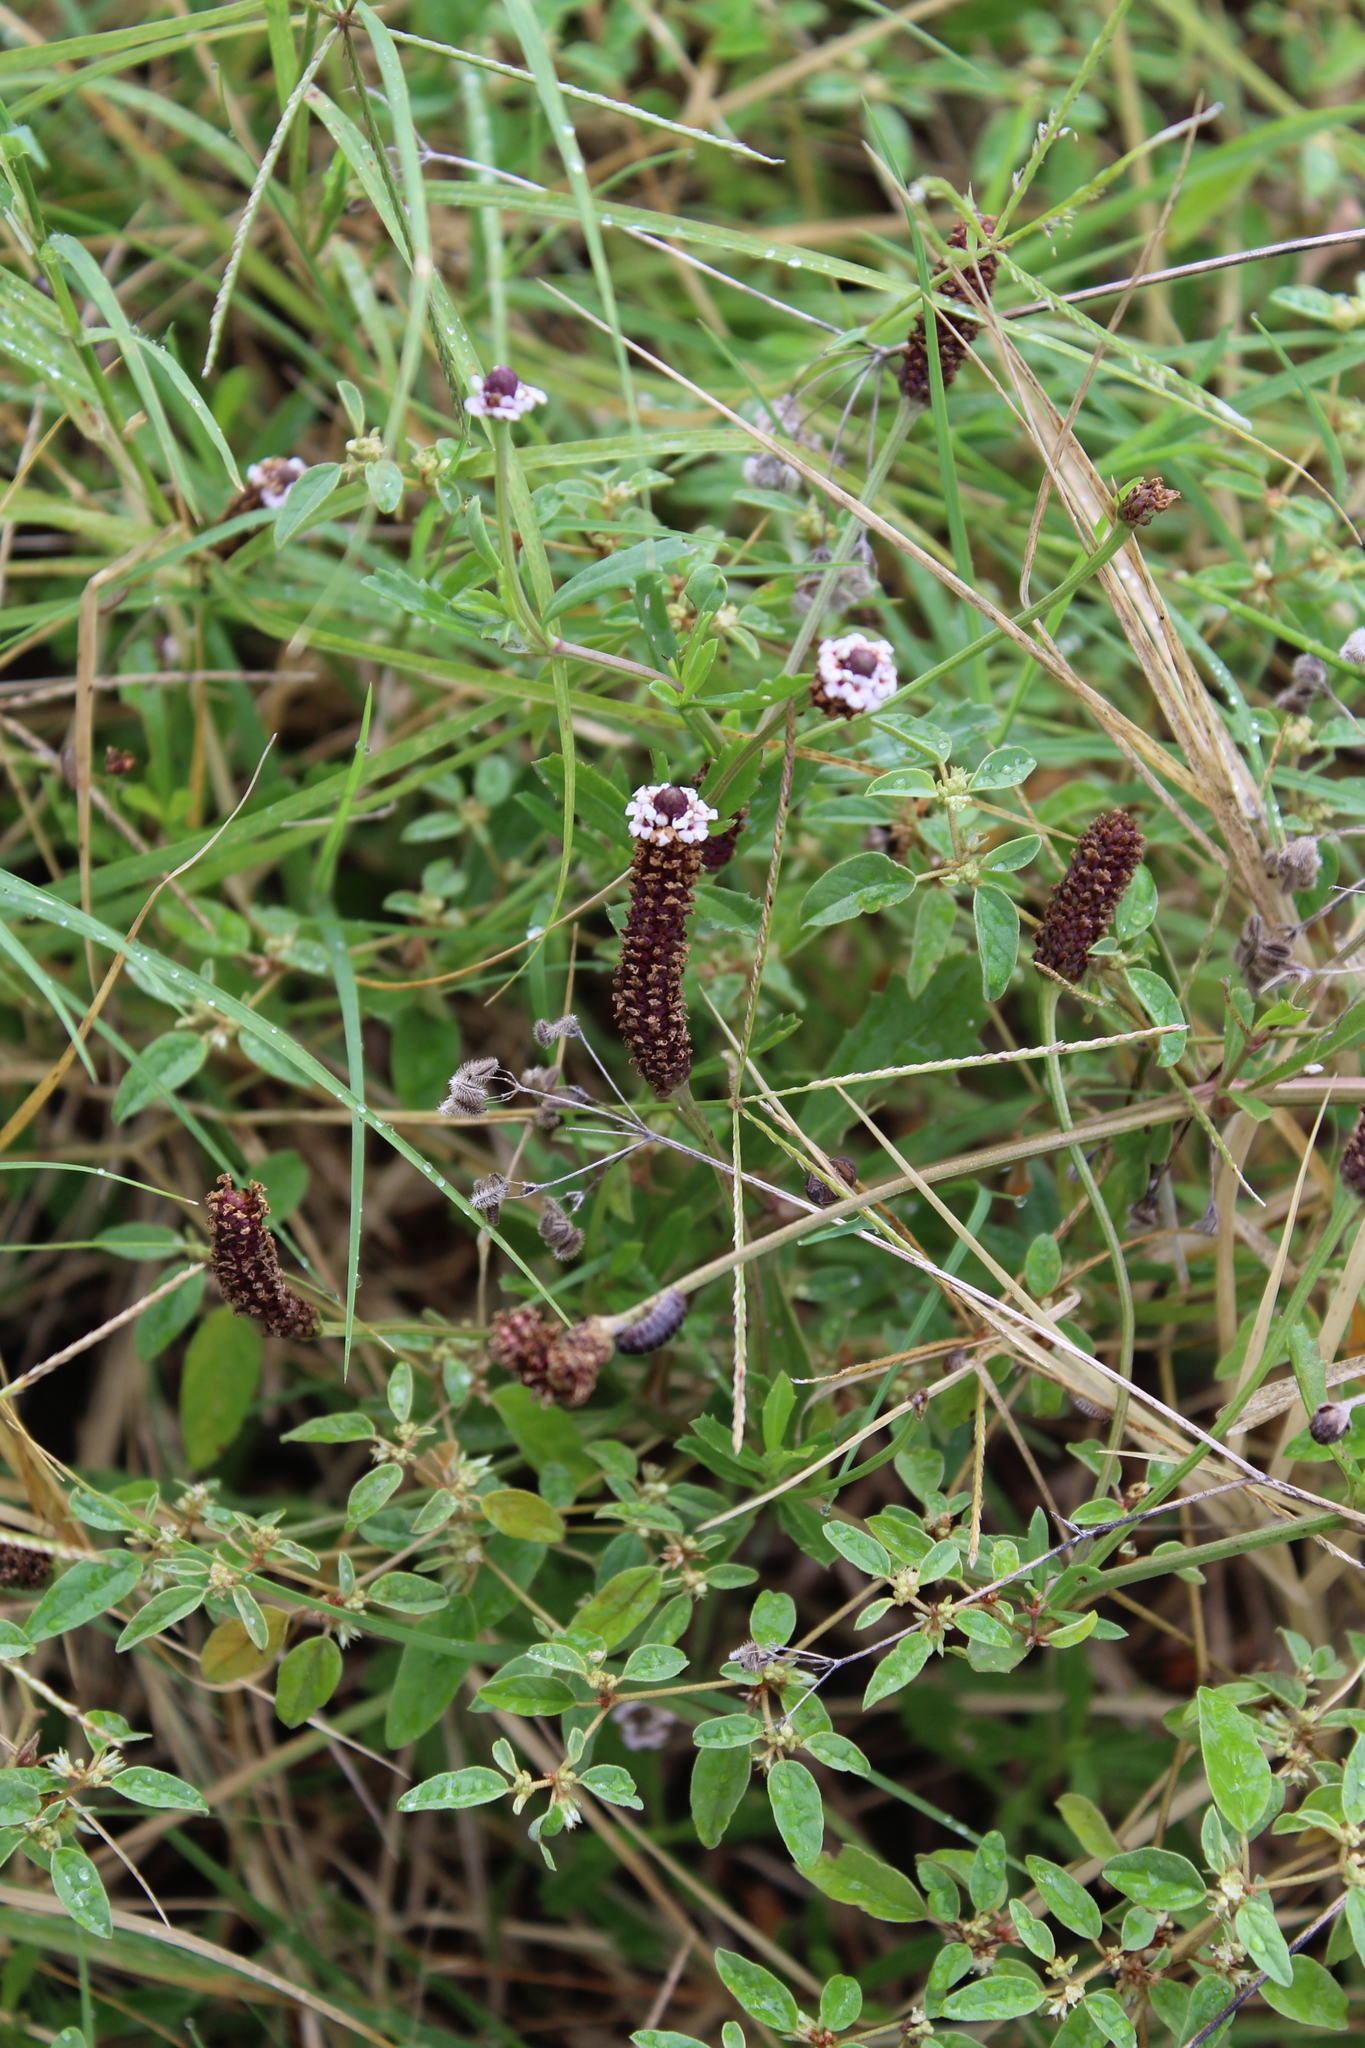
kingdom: Plantae
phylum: Tracheophyta
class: Magnoliopsida
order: Lamiales
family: Verbenaceae
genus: Phyla
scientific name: Phyla nodiflora
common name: Frogfruit
